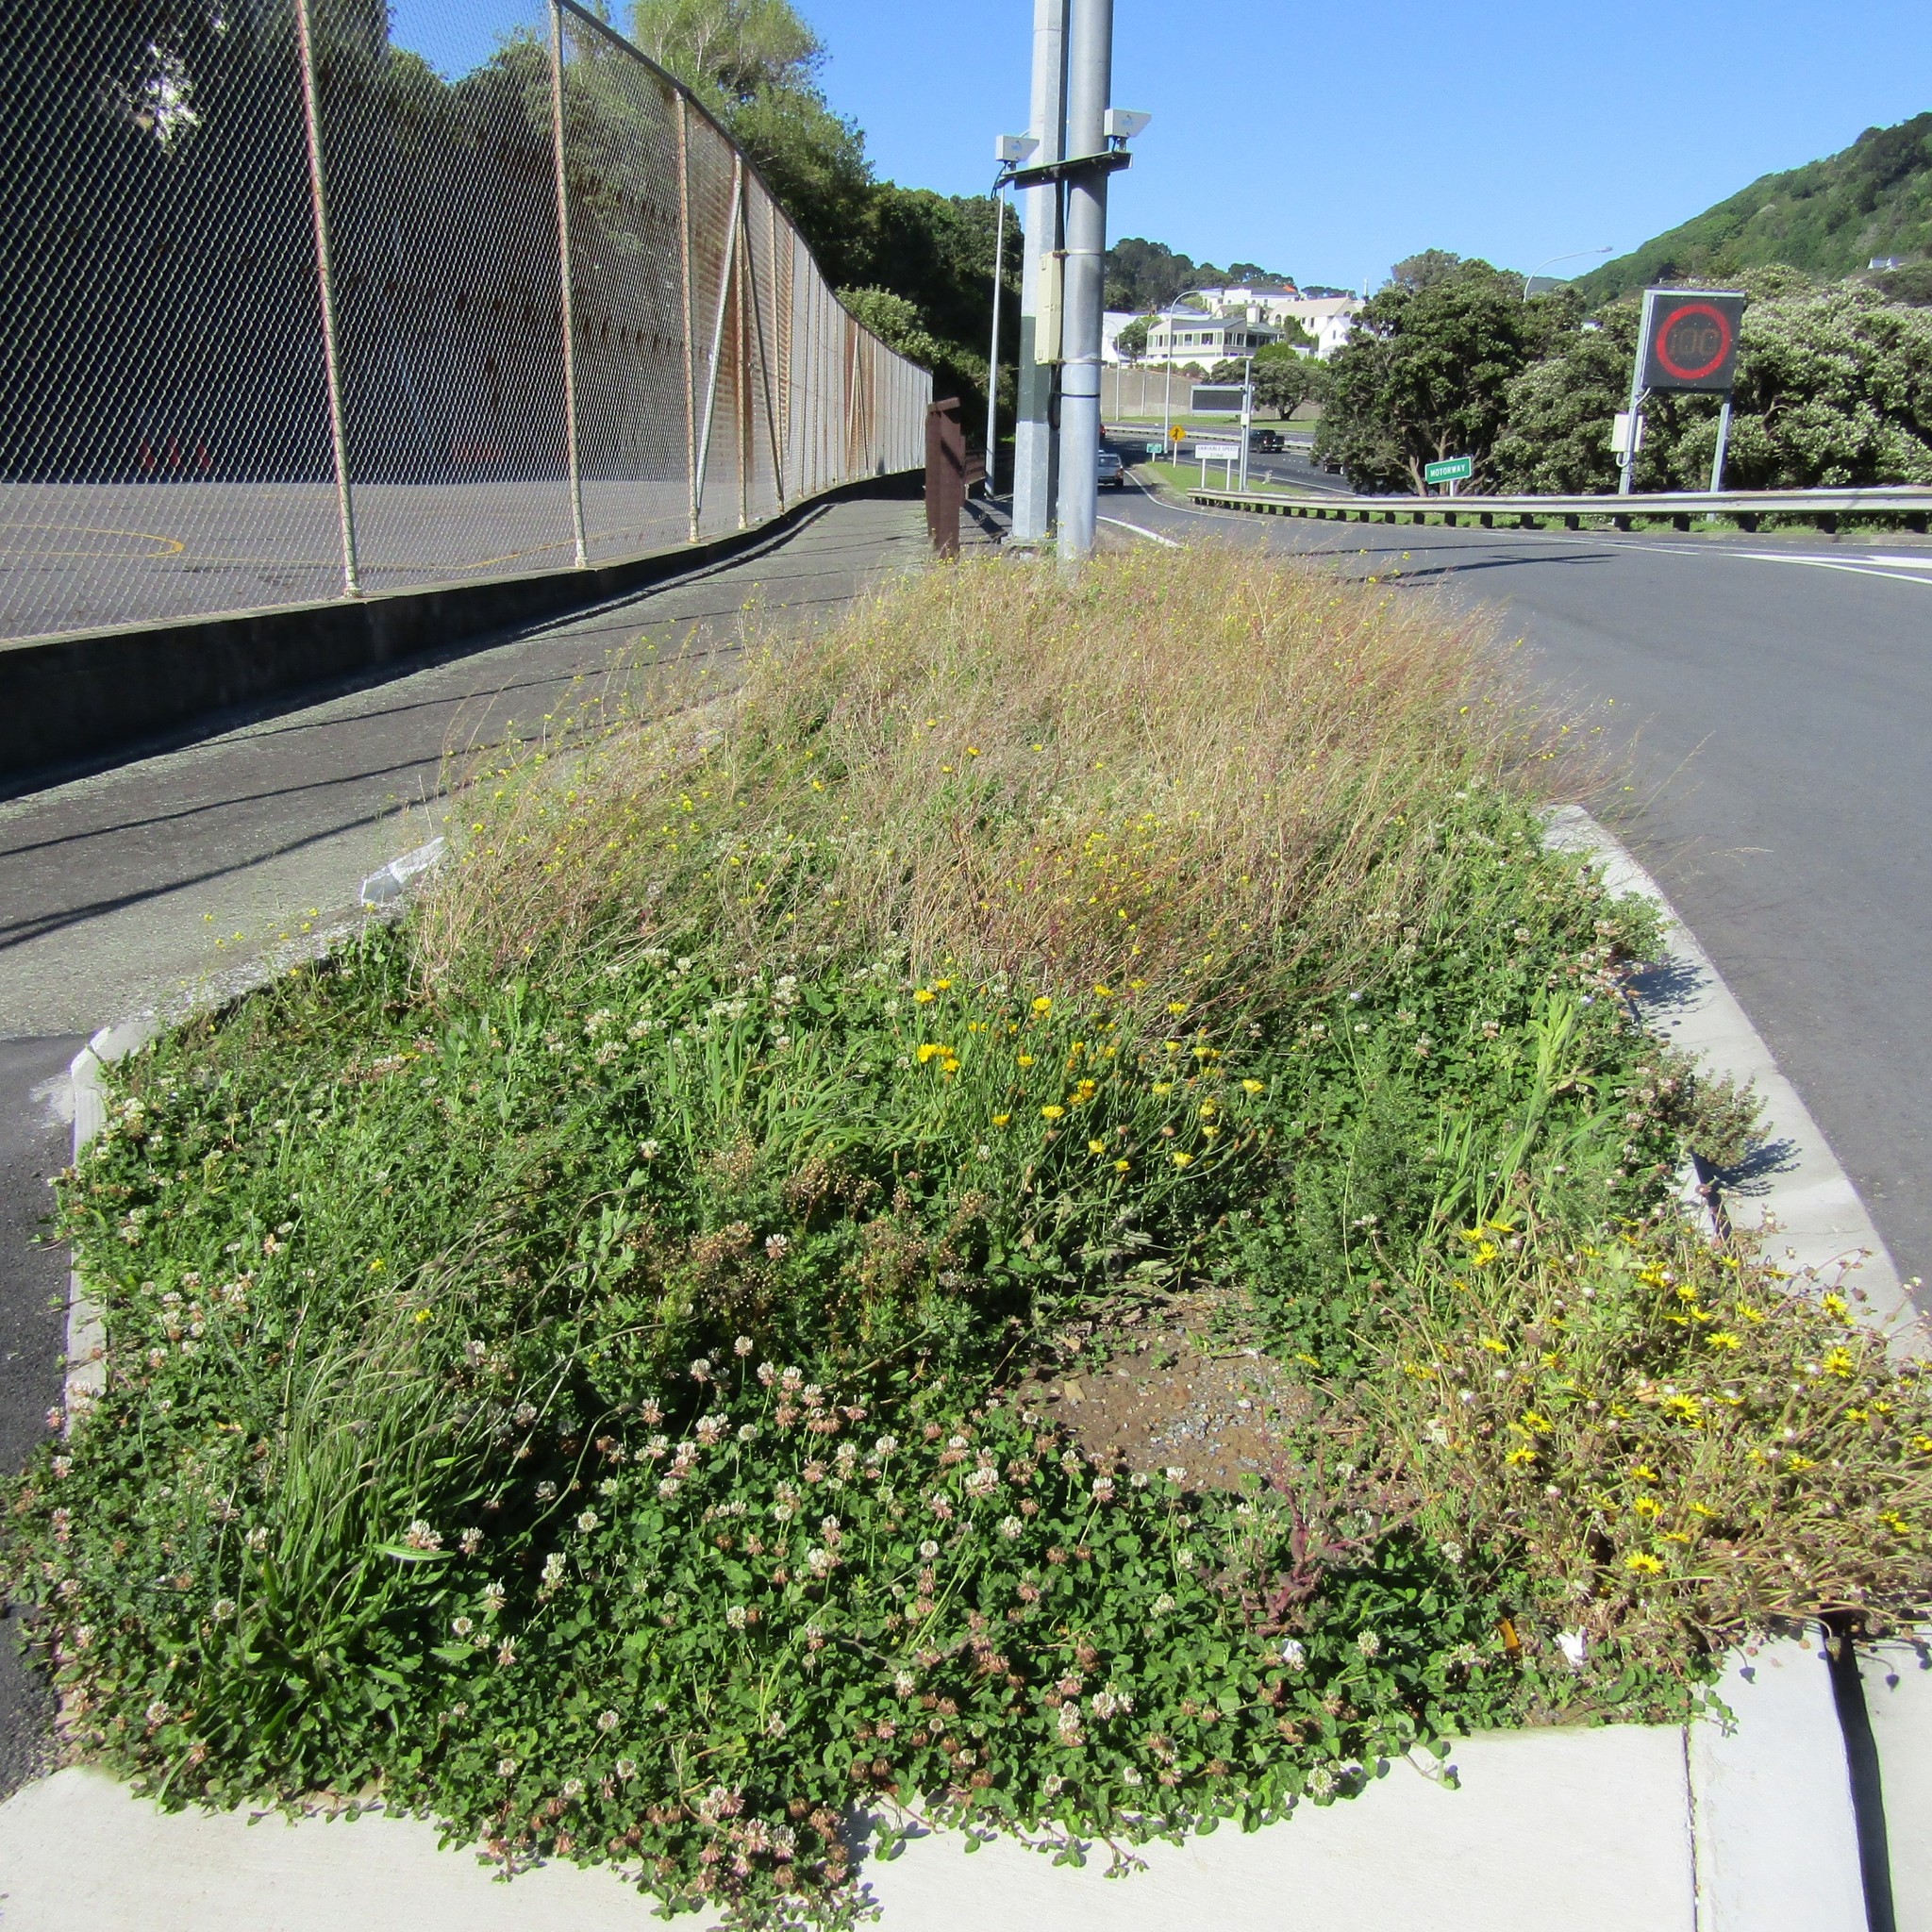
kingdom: Plantae
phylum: Tracheophyta
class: Magnoliopsida
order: Ericales
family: Primulaceae
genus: Lysimachia
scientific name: Lysimachia arvensis
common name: Scarlet pimpernel
